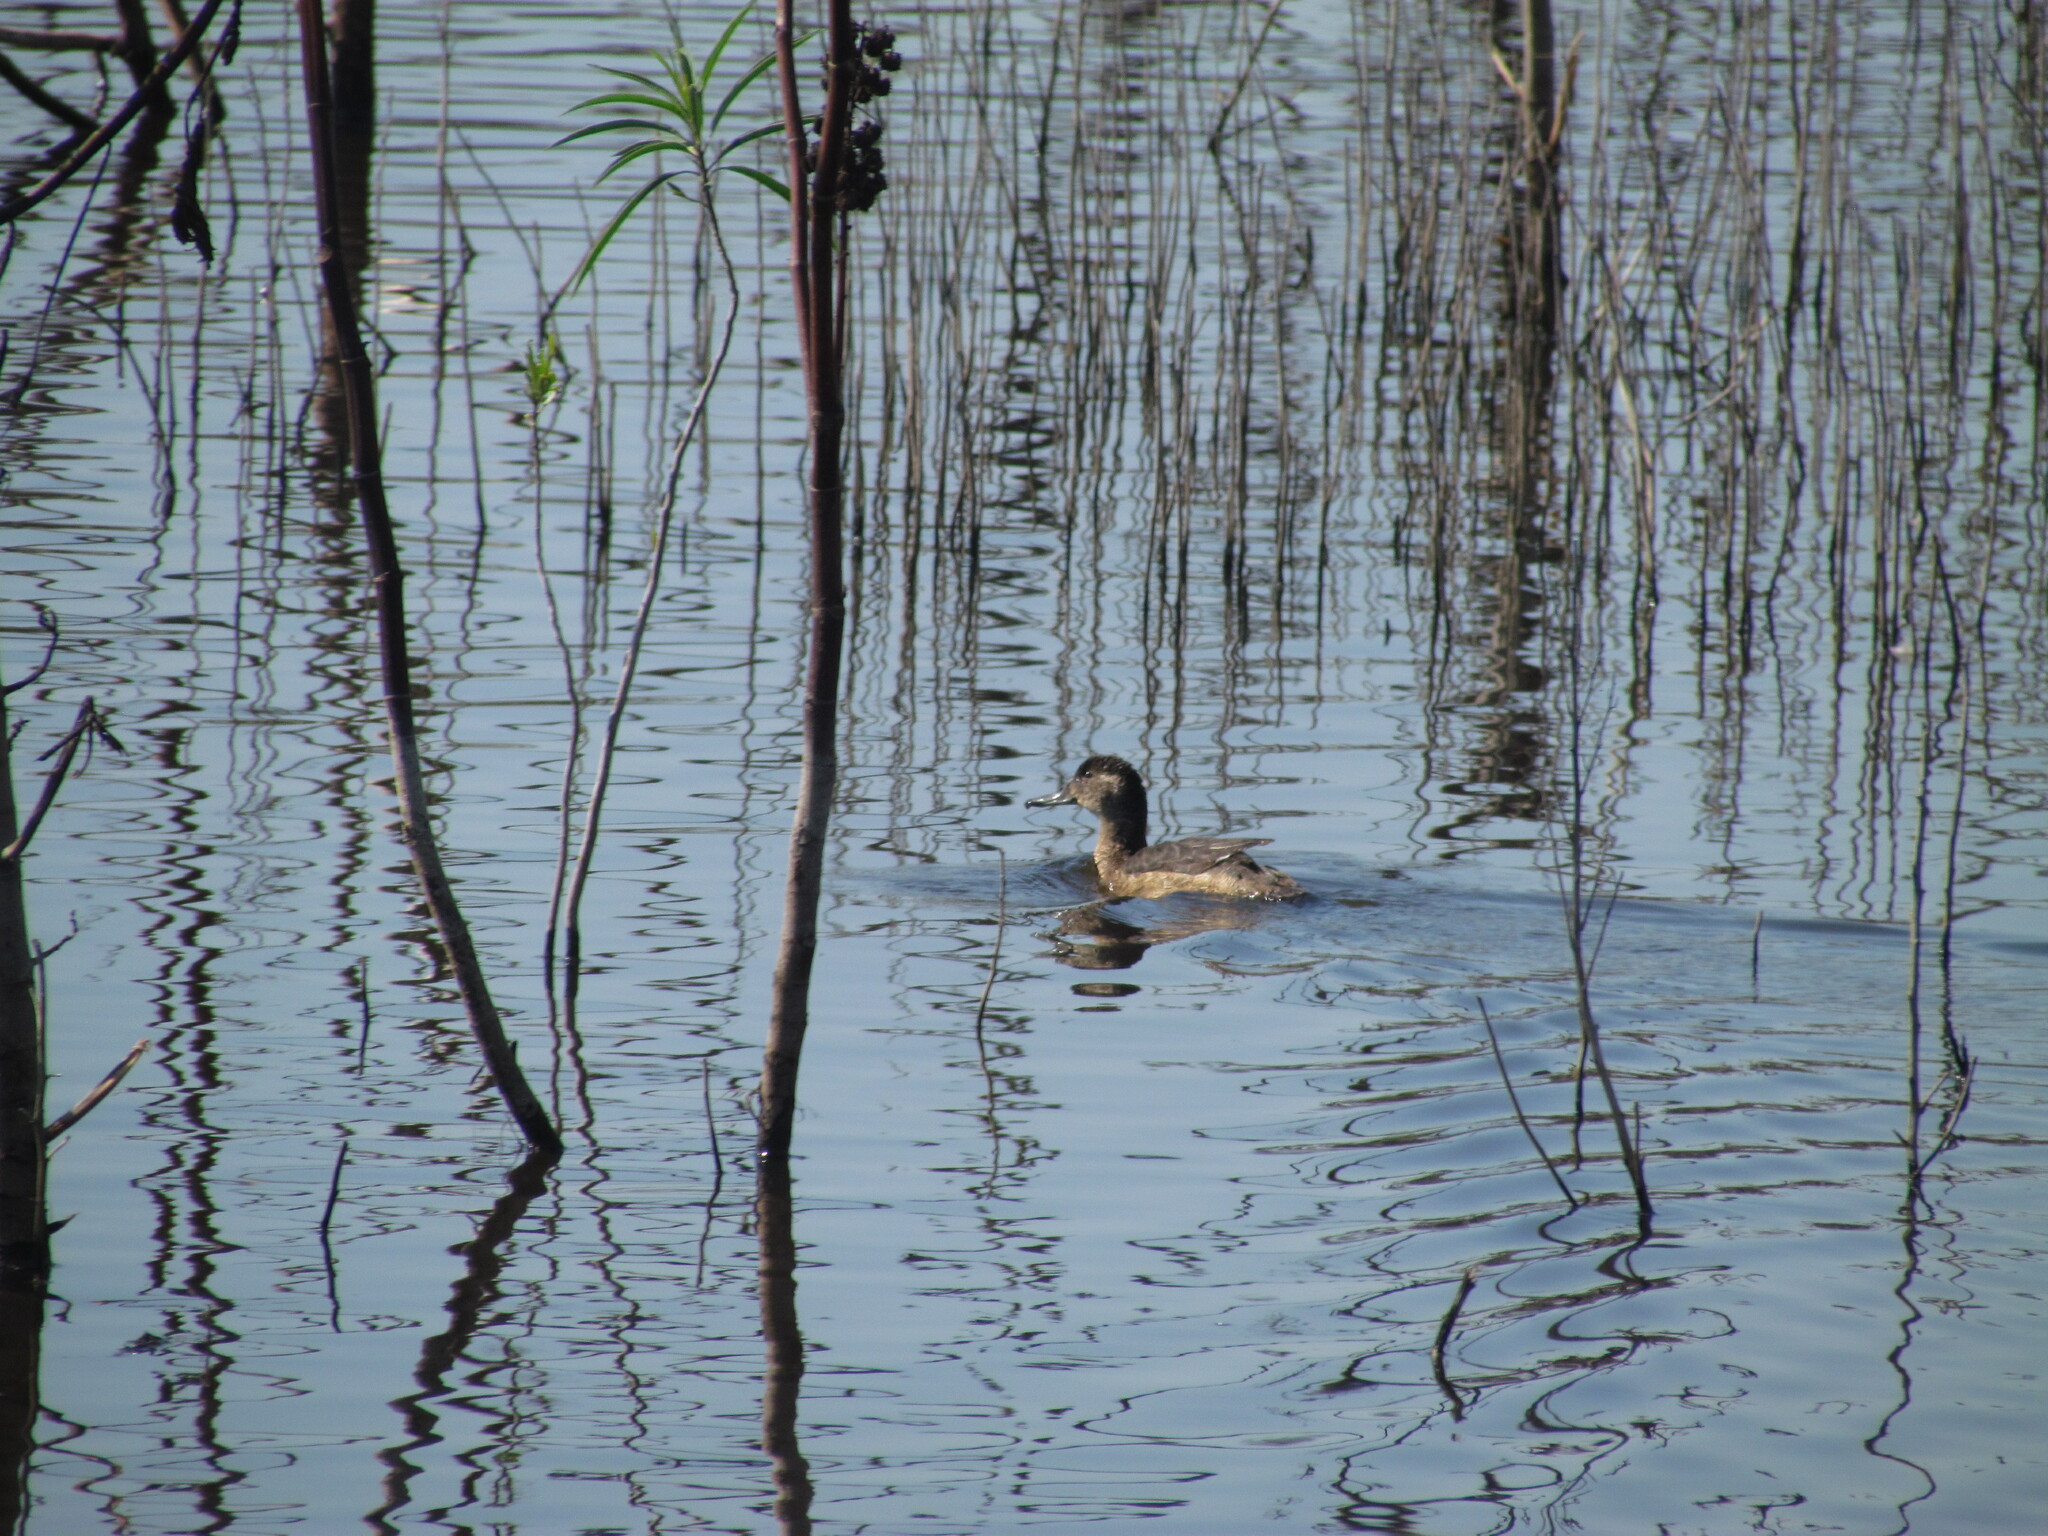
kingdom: Animalia
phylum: Chordata
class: Aves
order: Anseriformes
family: Anatidae
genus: Heteronetta
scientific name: Heteronetta atricapilla
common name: Black-headed duck
